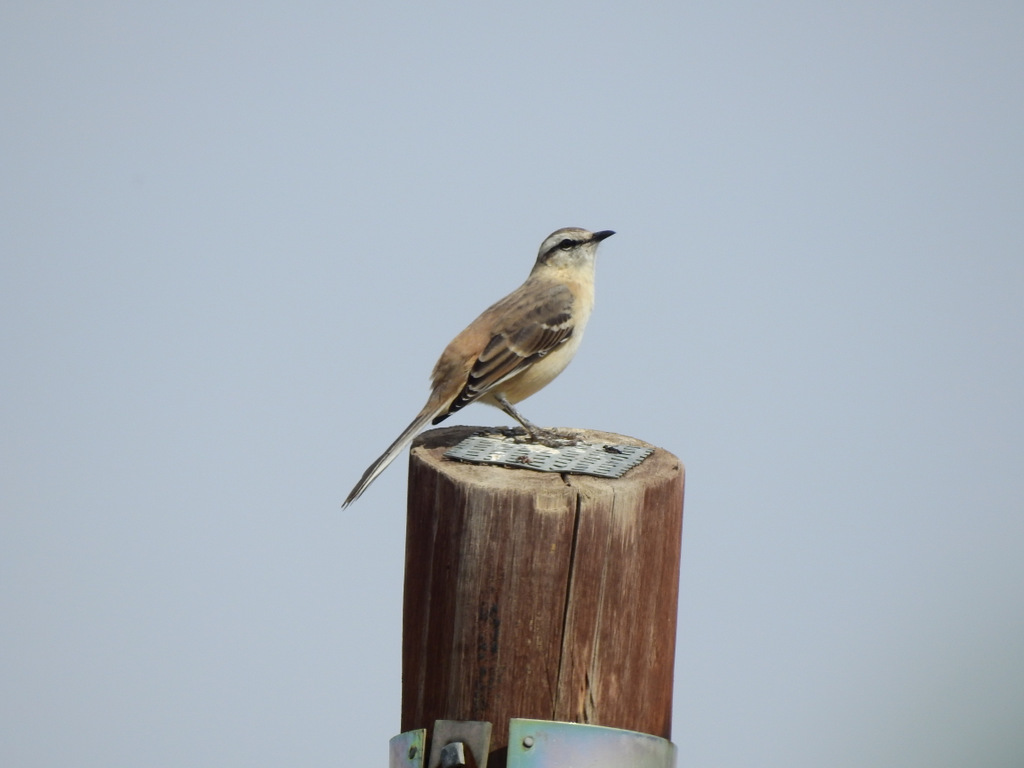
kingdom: Animalia
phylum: Chordata
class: Aves
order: Passeriformes
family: Mimidae
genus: Mimus
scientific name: Mimus saturninus
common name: Chalk-browed mockingbird
